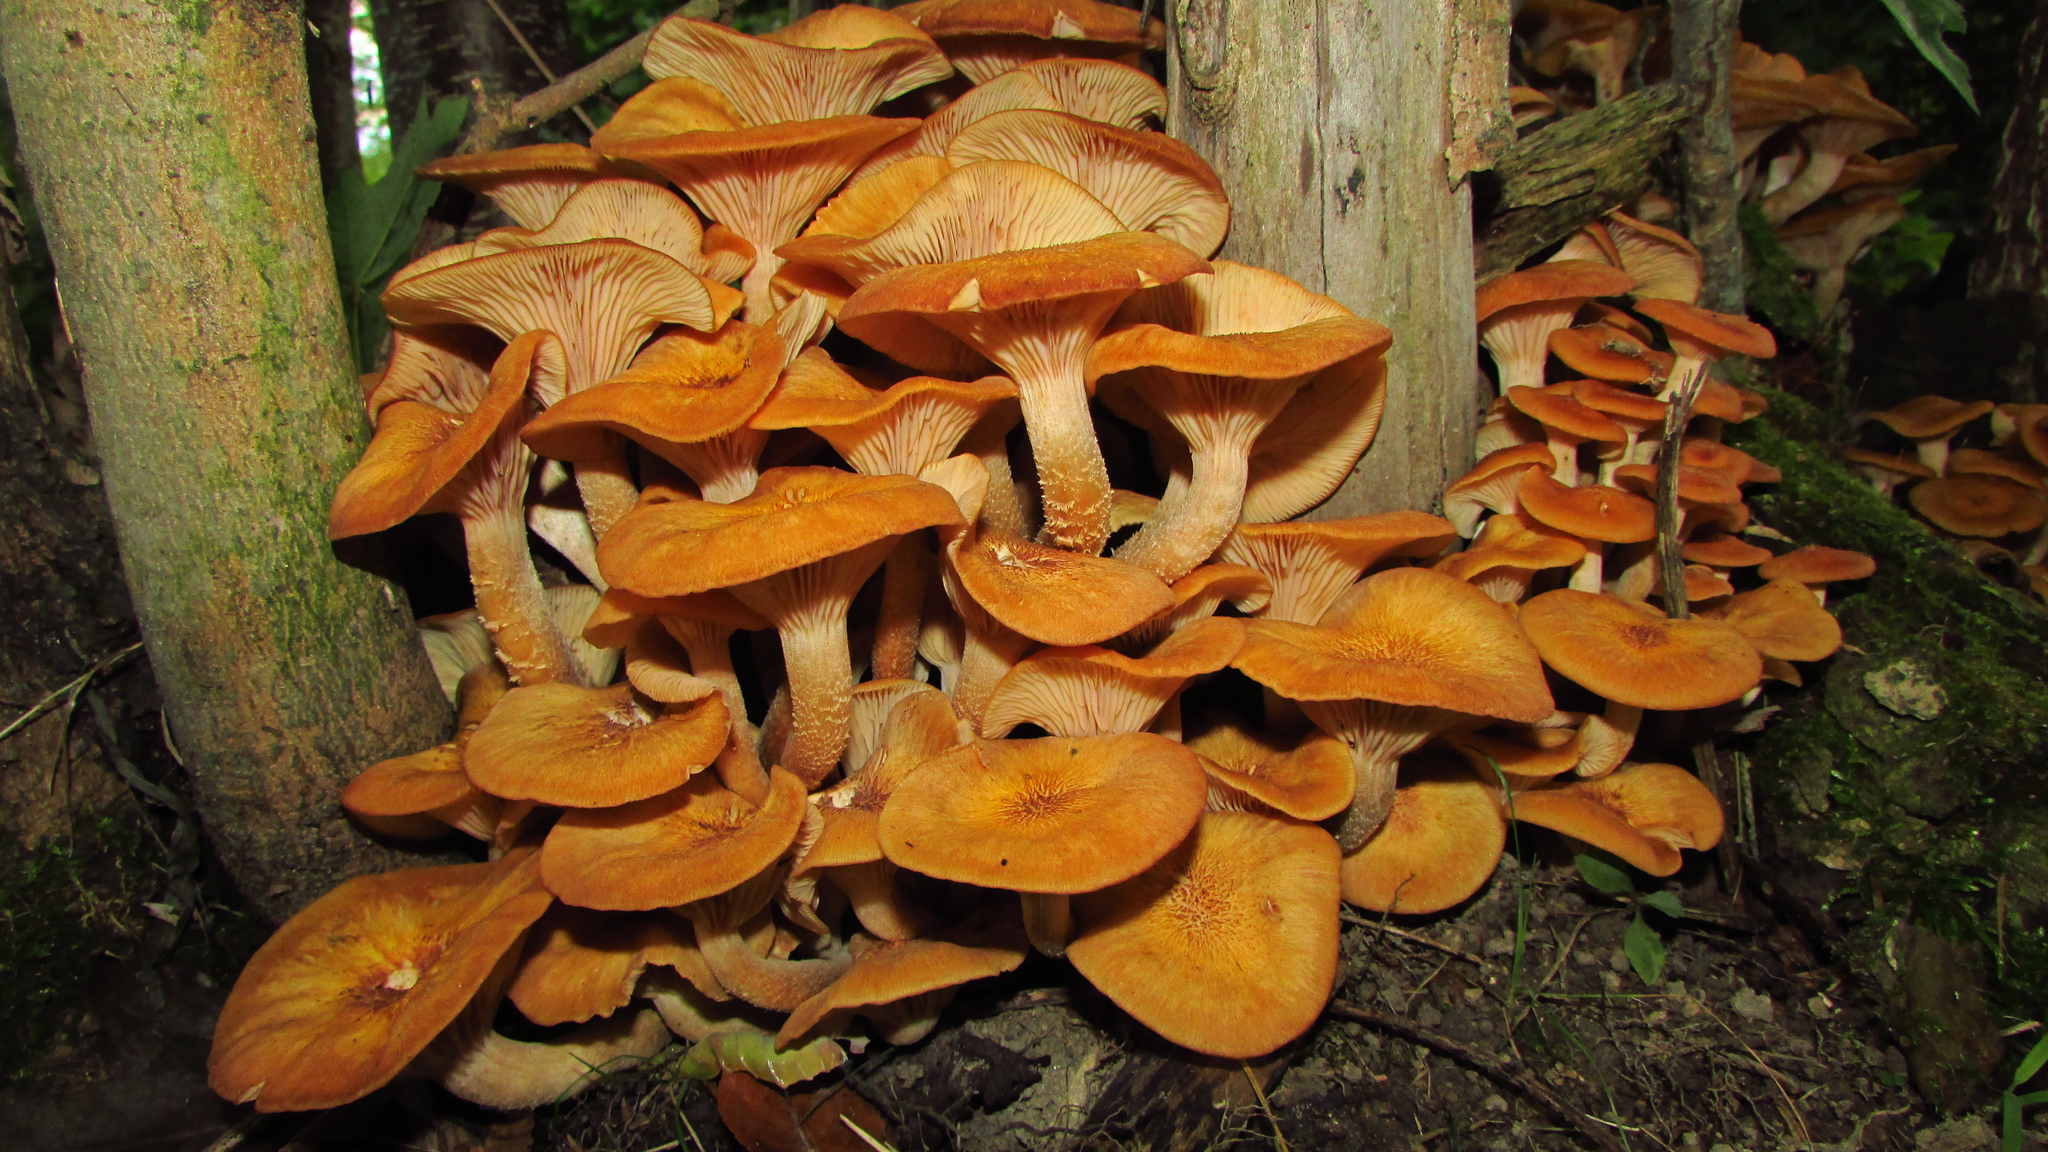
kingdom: Fungi
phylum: Basidiomycota
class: Agaricomycetes
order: Agaricales
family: Physalacriaceae
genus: Desarmillaria
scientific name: Desarmillaria caespitosa
